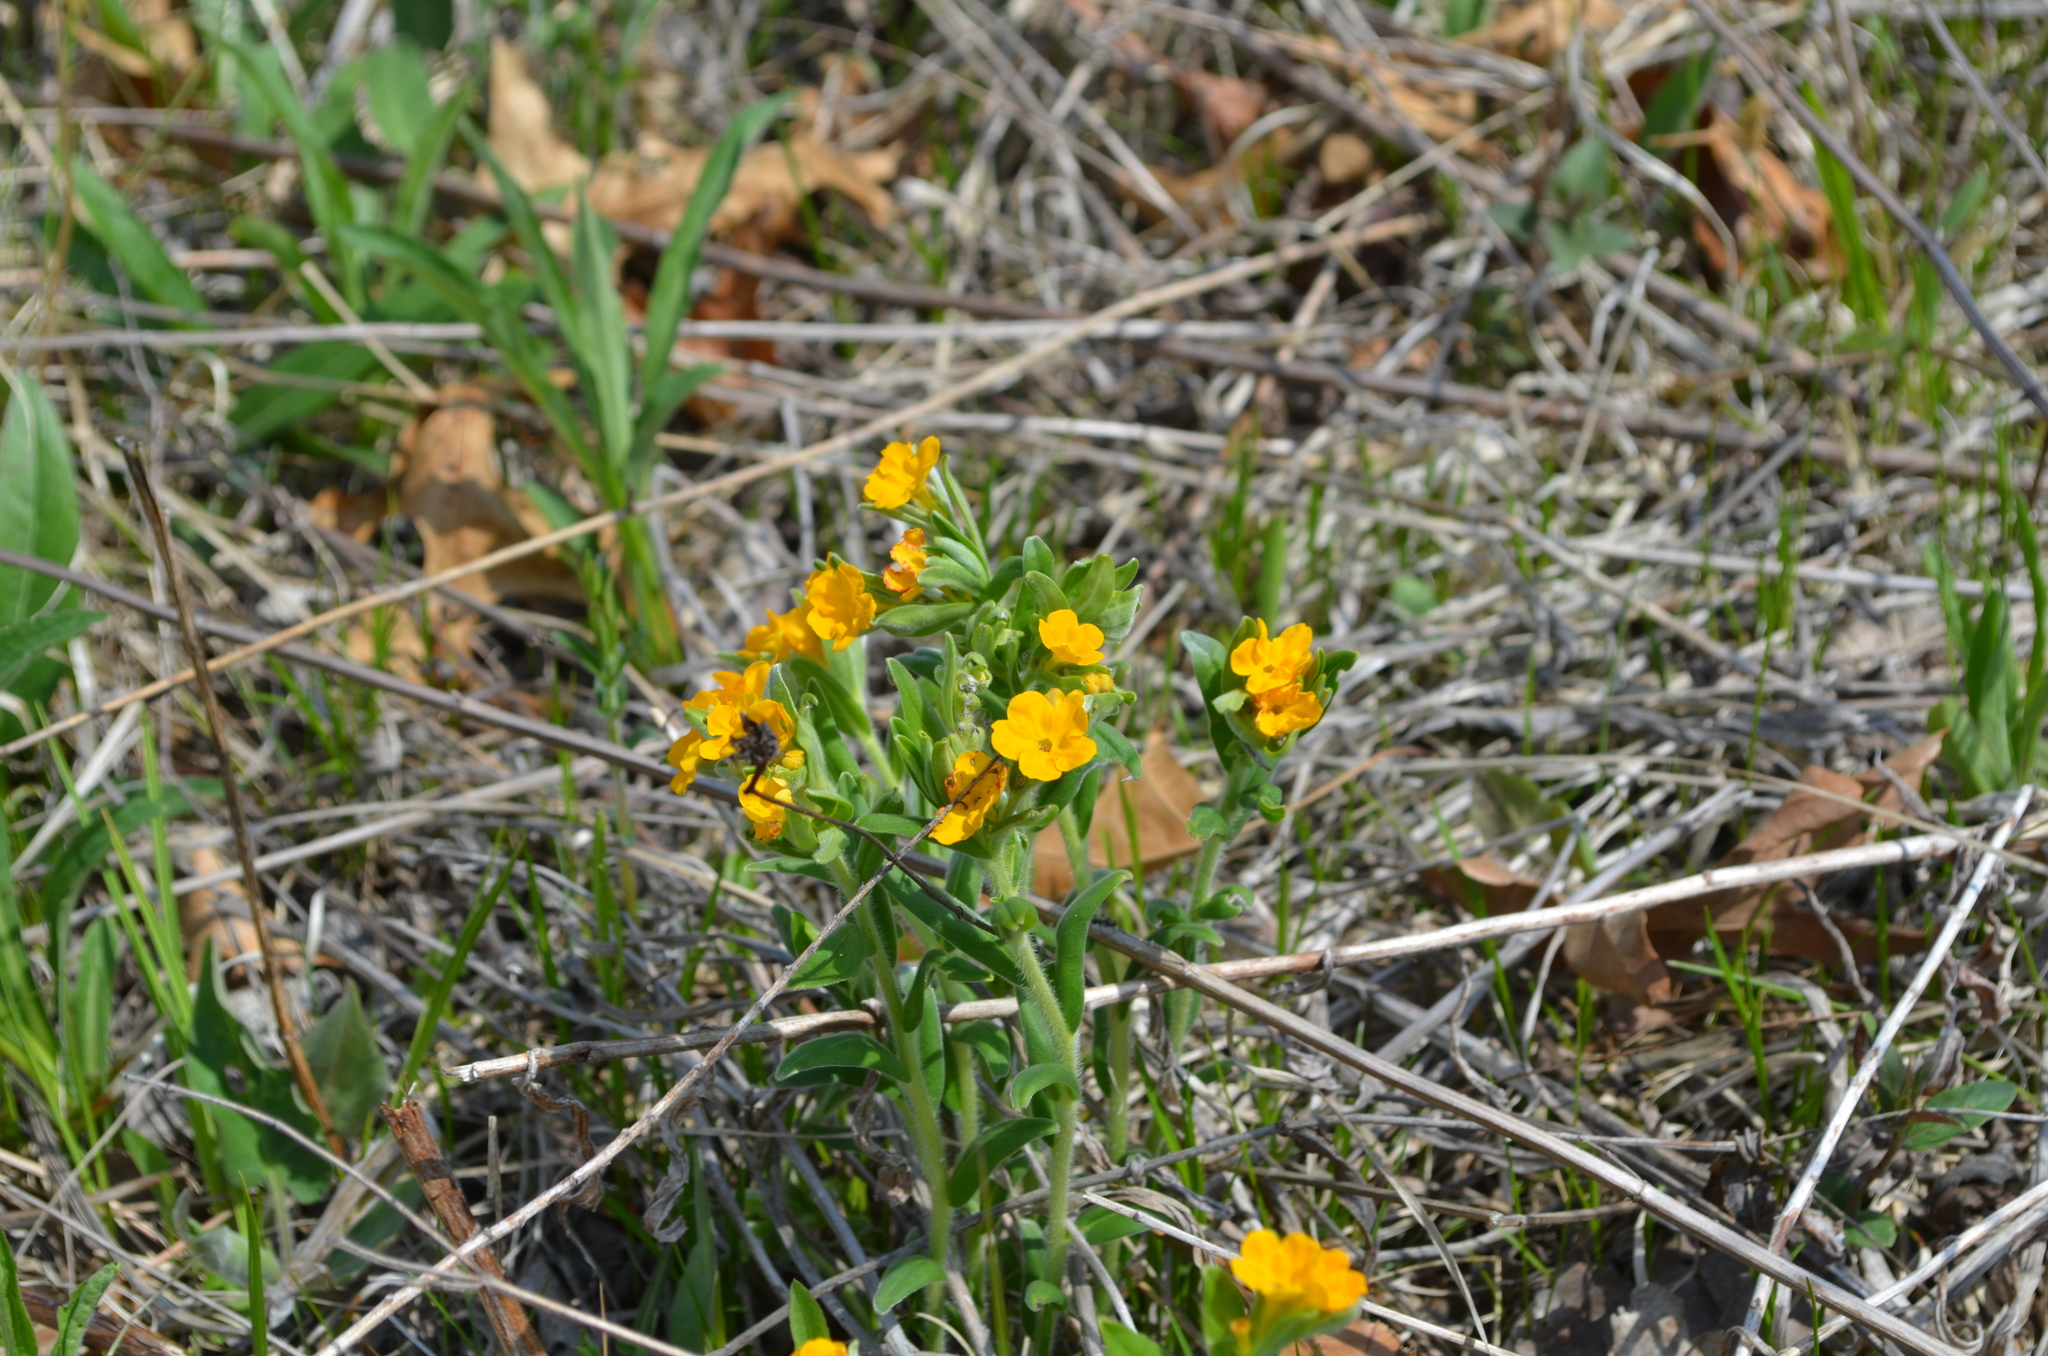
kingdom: Plantae
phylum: Tracheophyta
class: Magnoliopsida
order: Boraginales
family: Boraginaceae
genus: Lithospermum
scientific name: Lithospermum canescens
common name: Hoary puccoon
